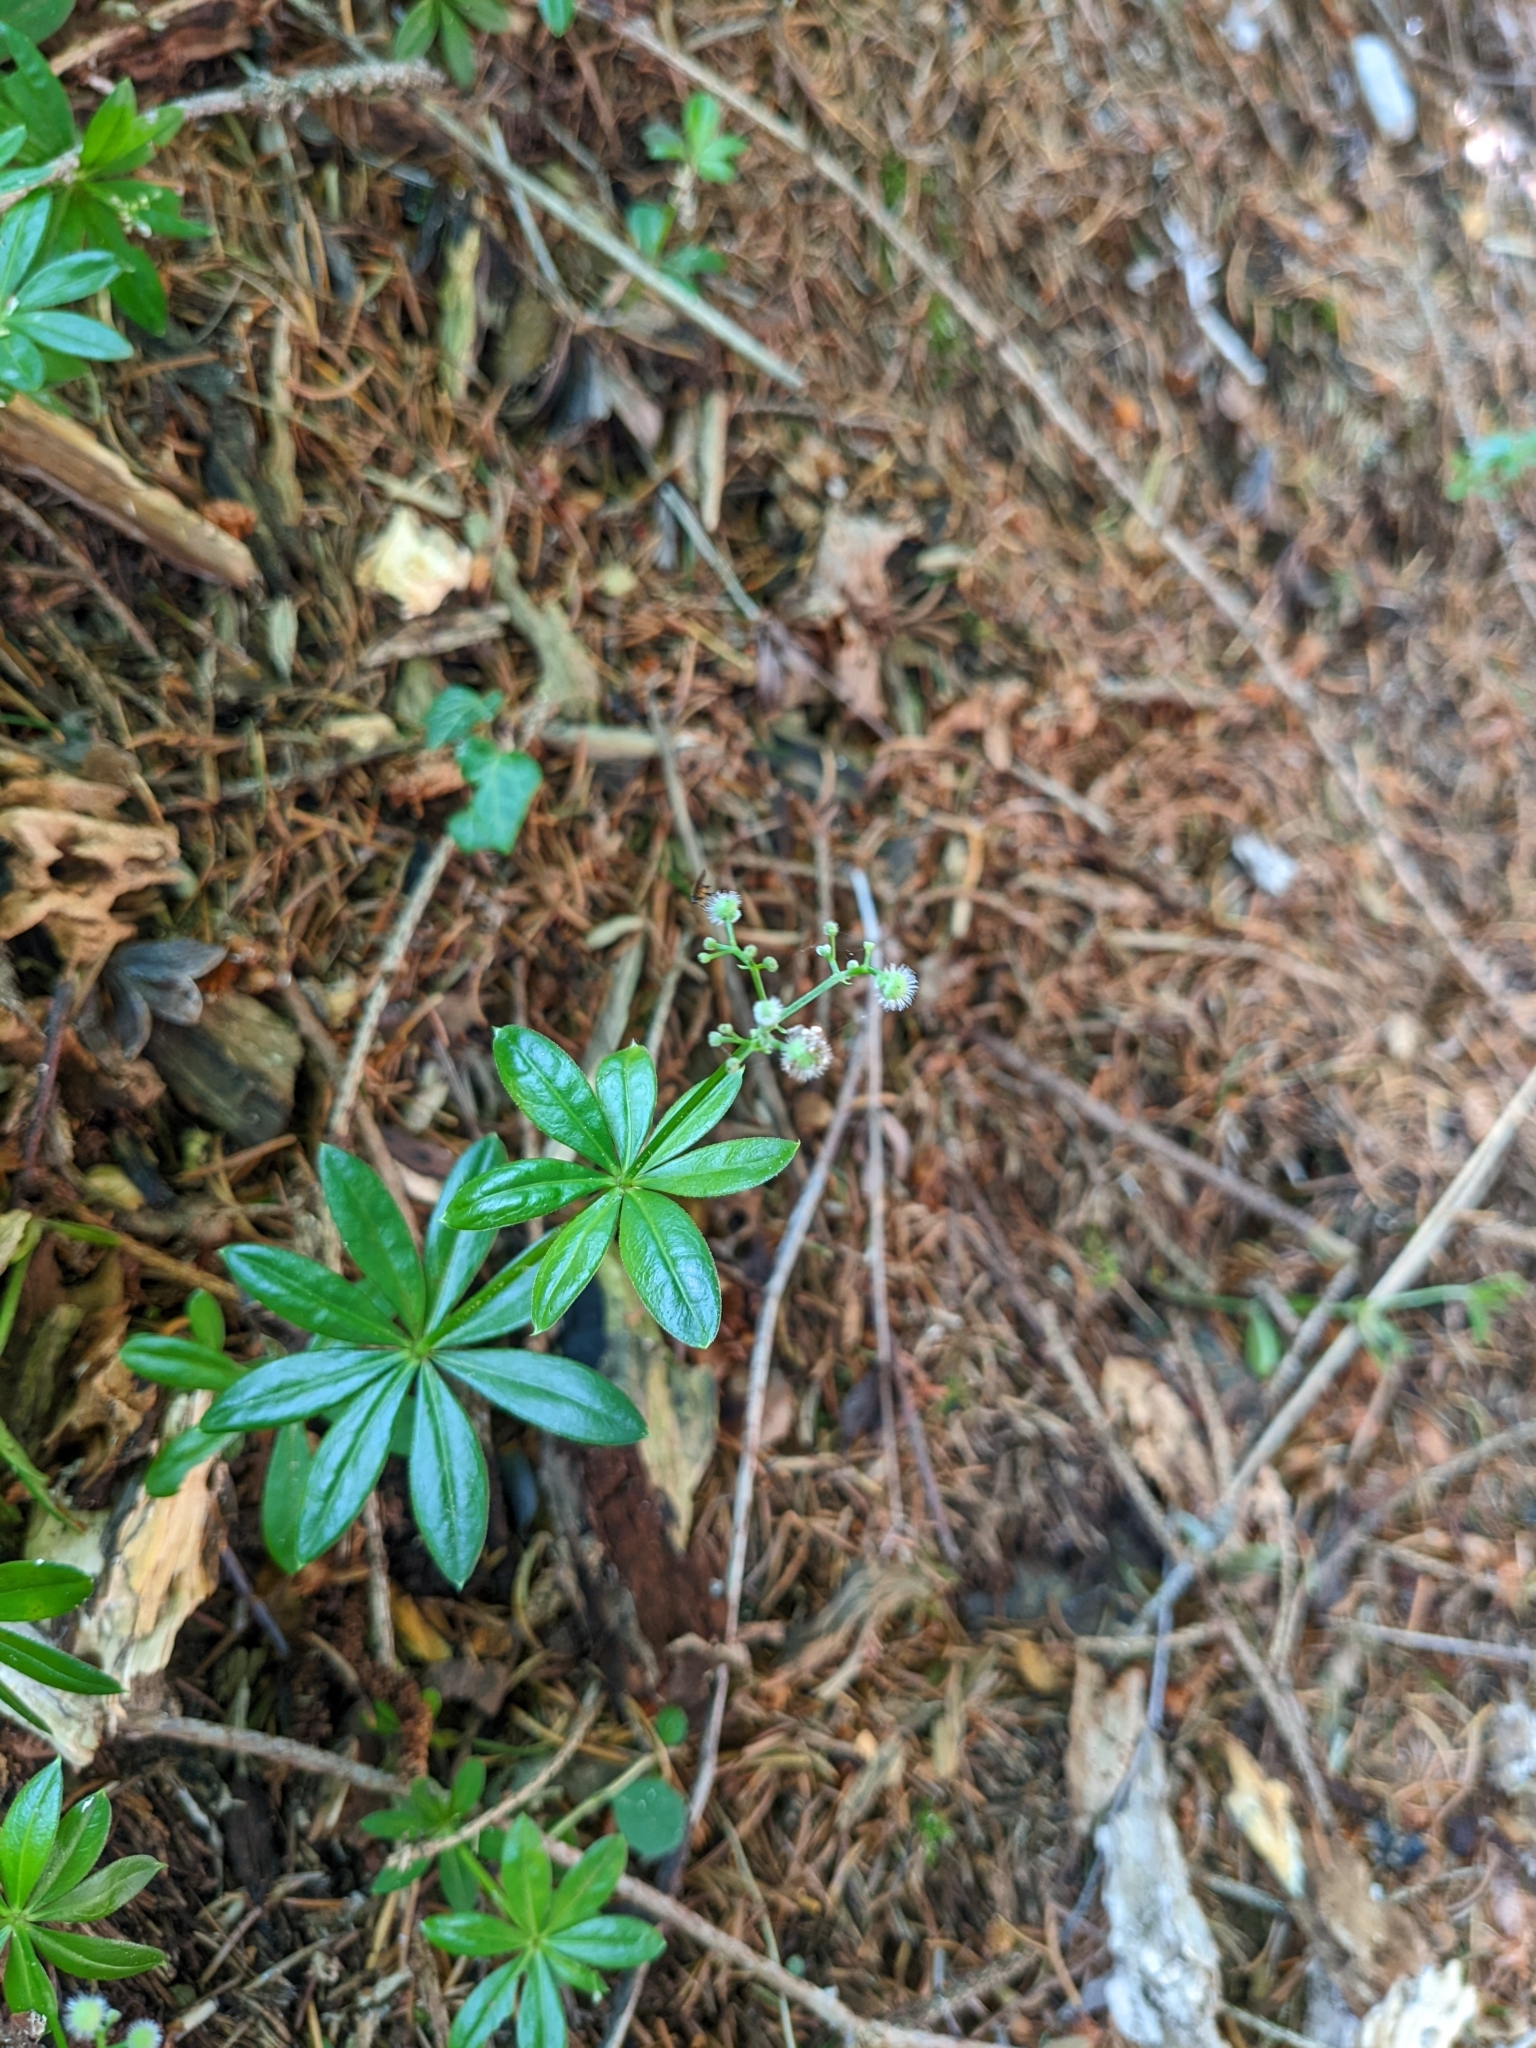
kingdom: Plantae
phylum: Tracheophyta
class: Magnoliopsida
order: Gentianales
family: Rubiaceae
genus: Galium
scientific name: Galium odoratum
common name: Sweet woodruff
